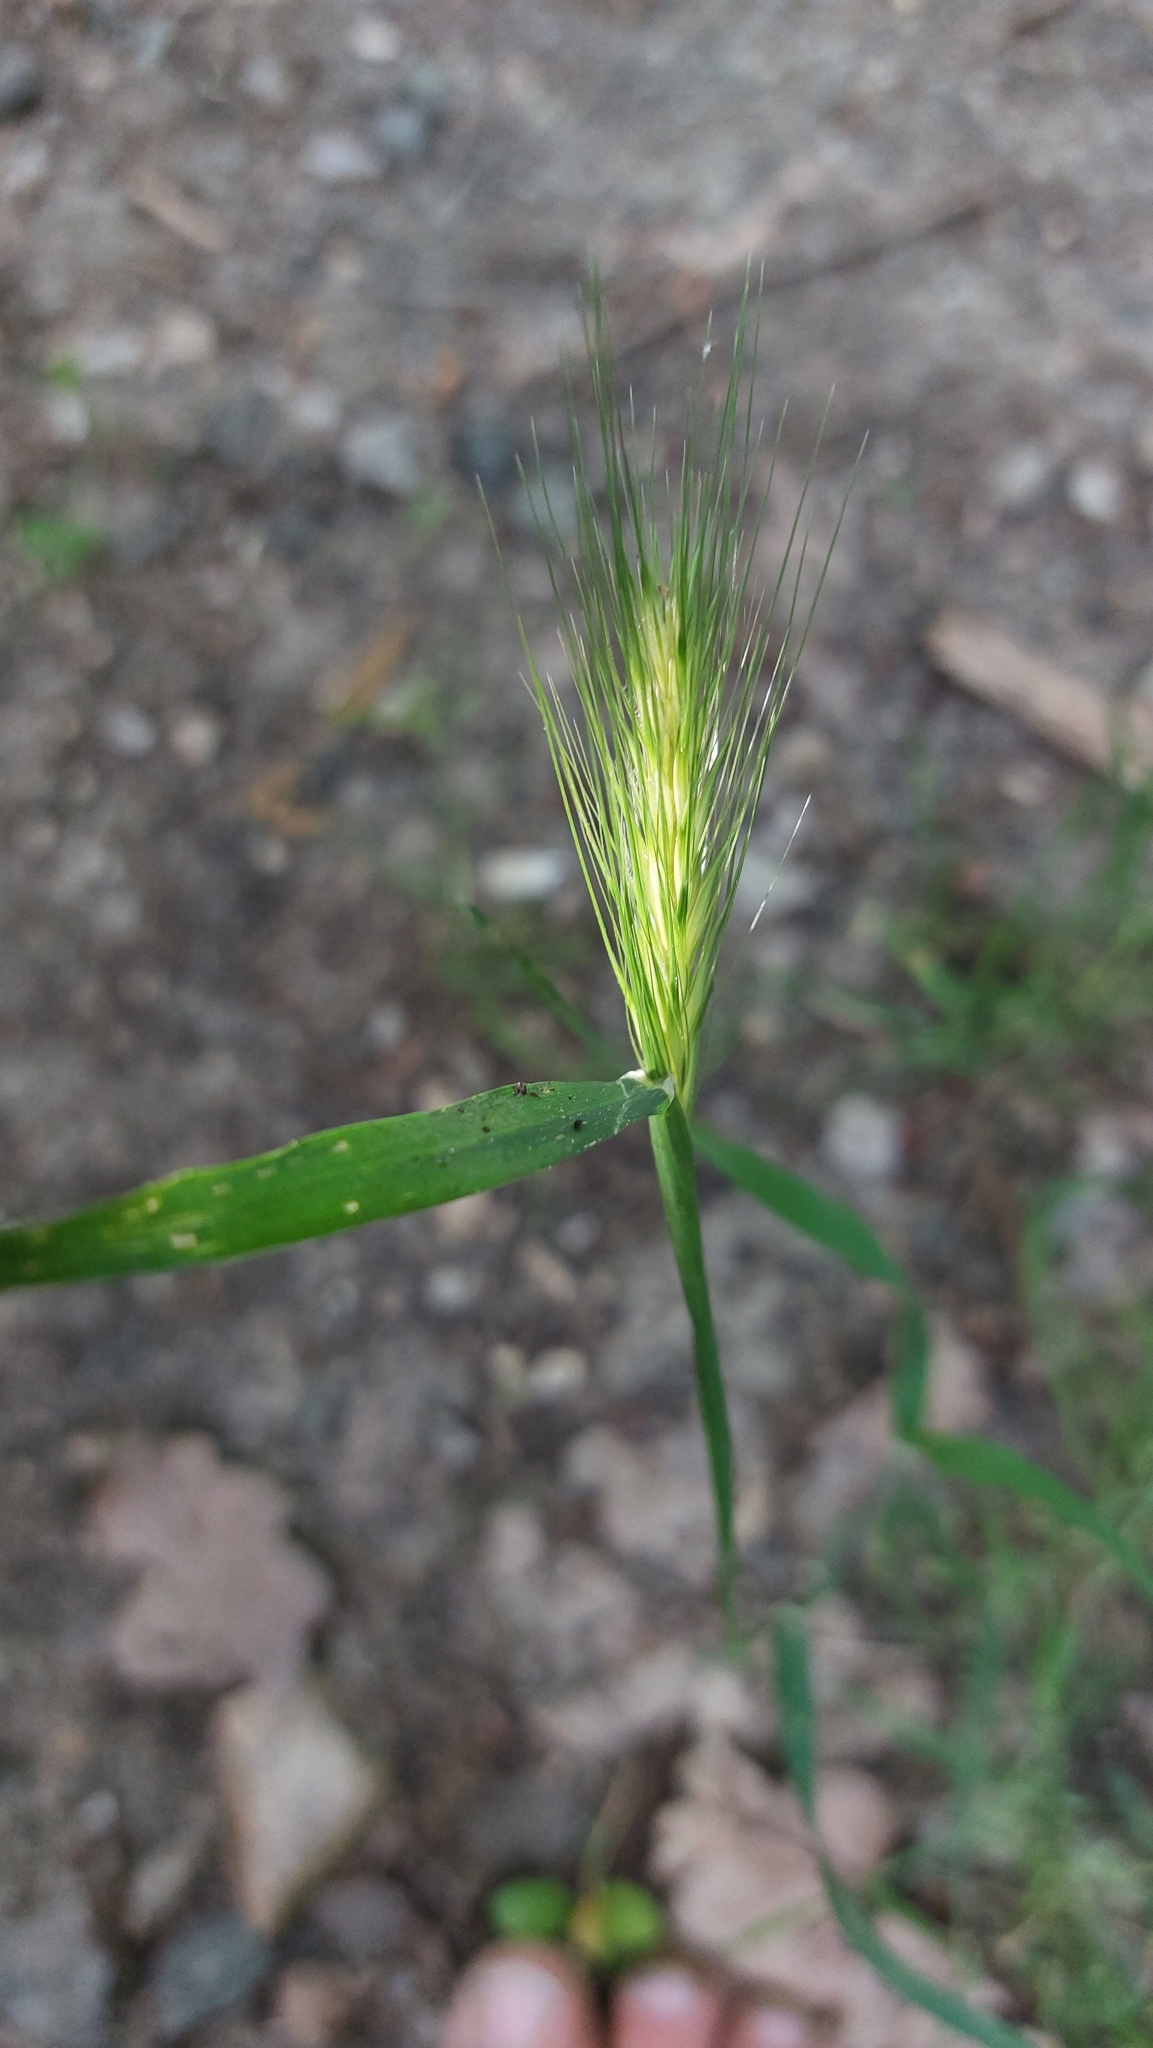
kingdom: Plantae
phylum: Tracheophyta
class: Liliopsida
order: Poales
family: Poaceae
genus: Hordeum
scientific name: Hordeum murinum
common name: Wall barley
